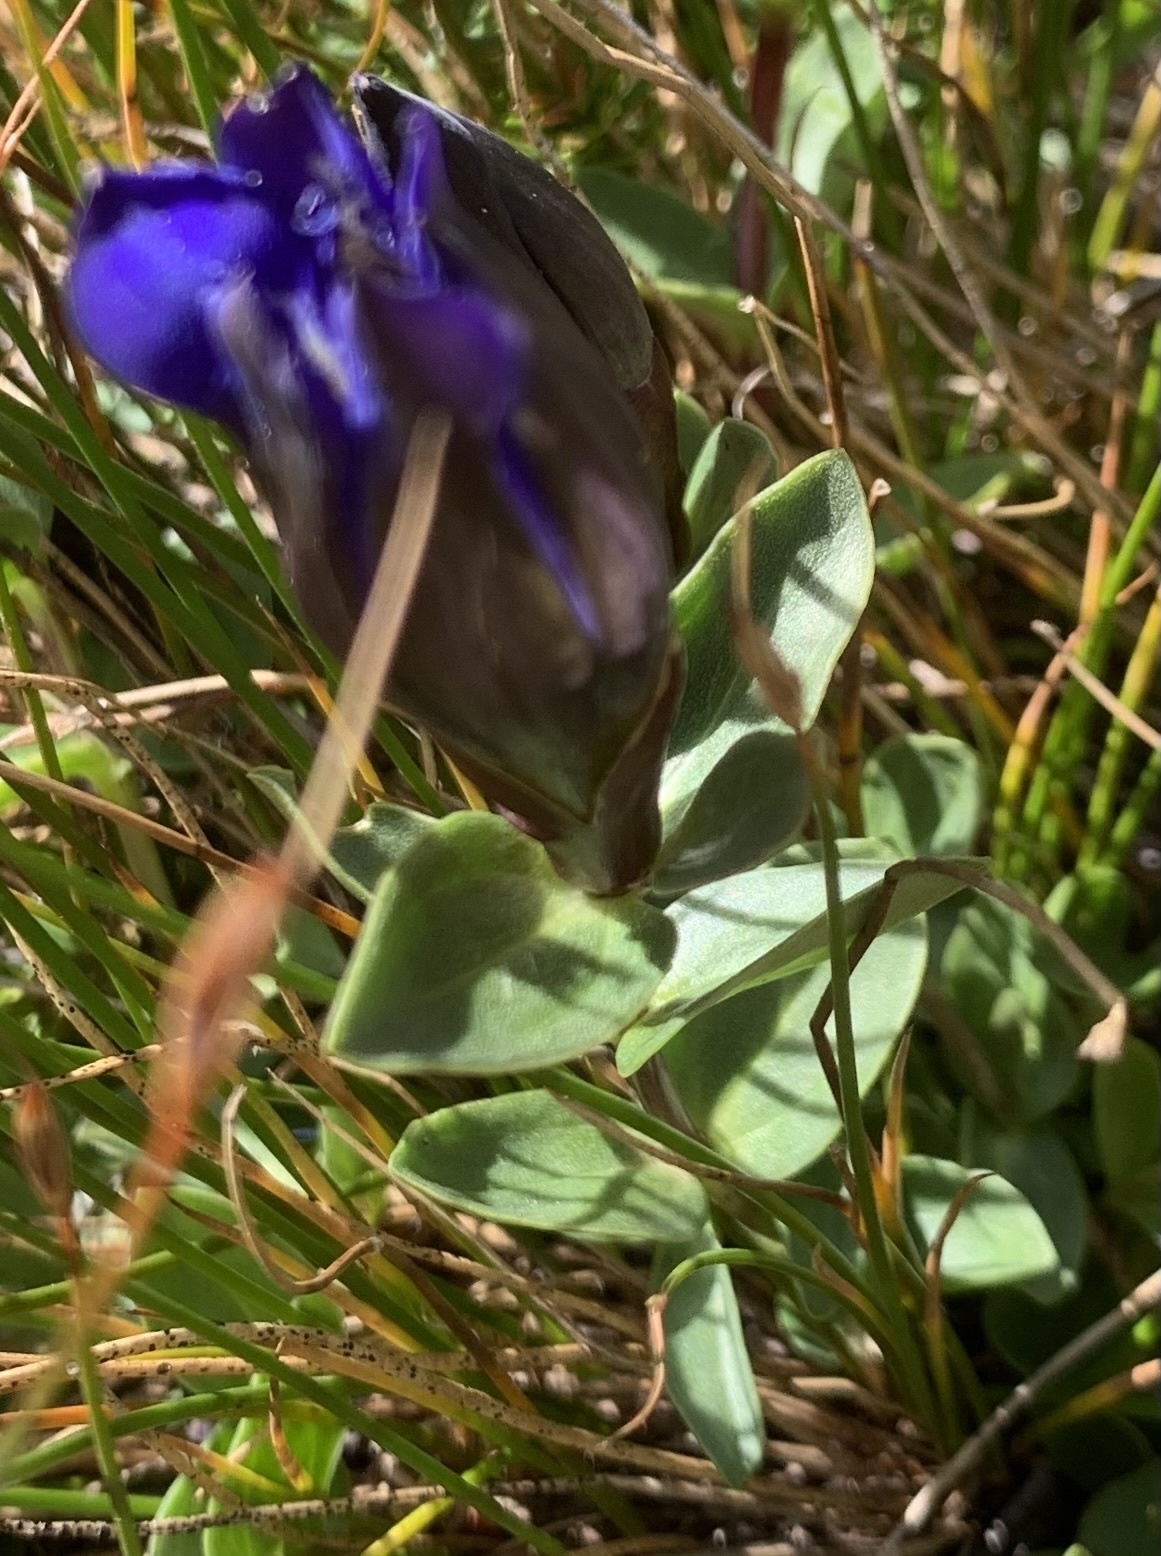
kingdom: Plantae
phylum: Tracheophyta
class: Magnoliopsida
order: Gentianales
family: Gentianaceae
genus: Gentiana
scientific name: Gentiana calycosa
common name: Rainier pleated gentian
